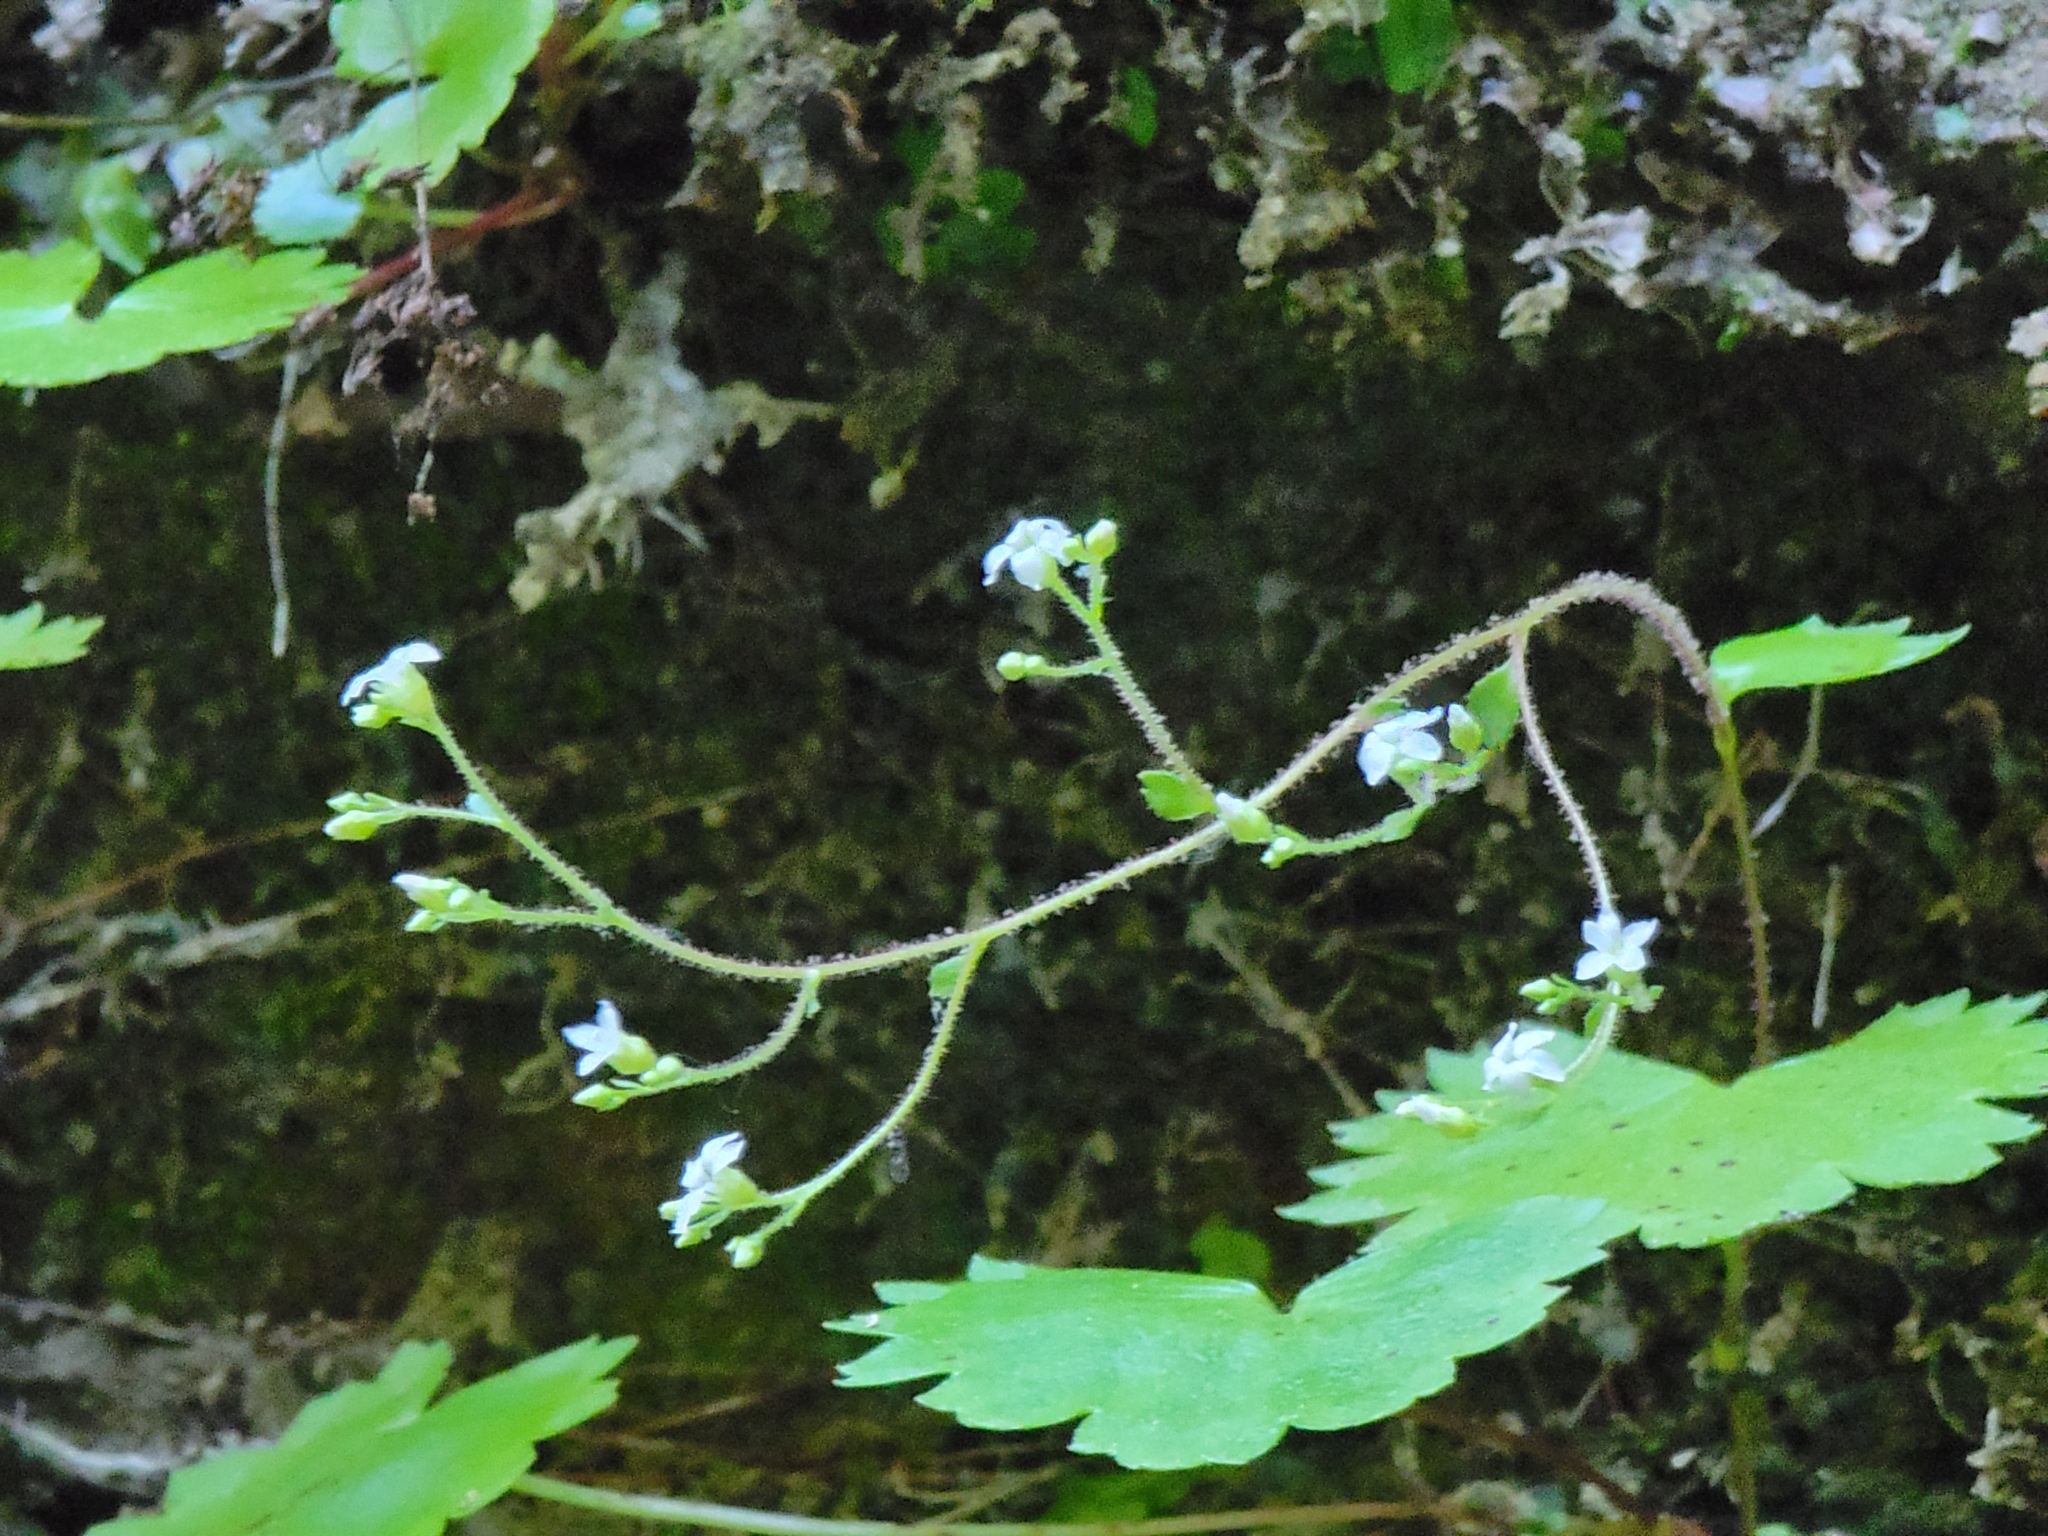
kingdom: Plantae
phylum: Tracheophyta
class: Magnoliopsida
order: Saxifragales
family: Saxifragaceae
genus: Sullivantia
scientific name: Sullivantia sullivantii
